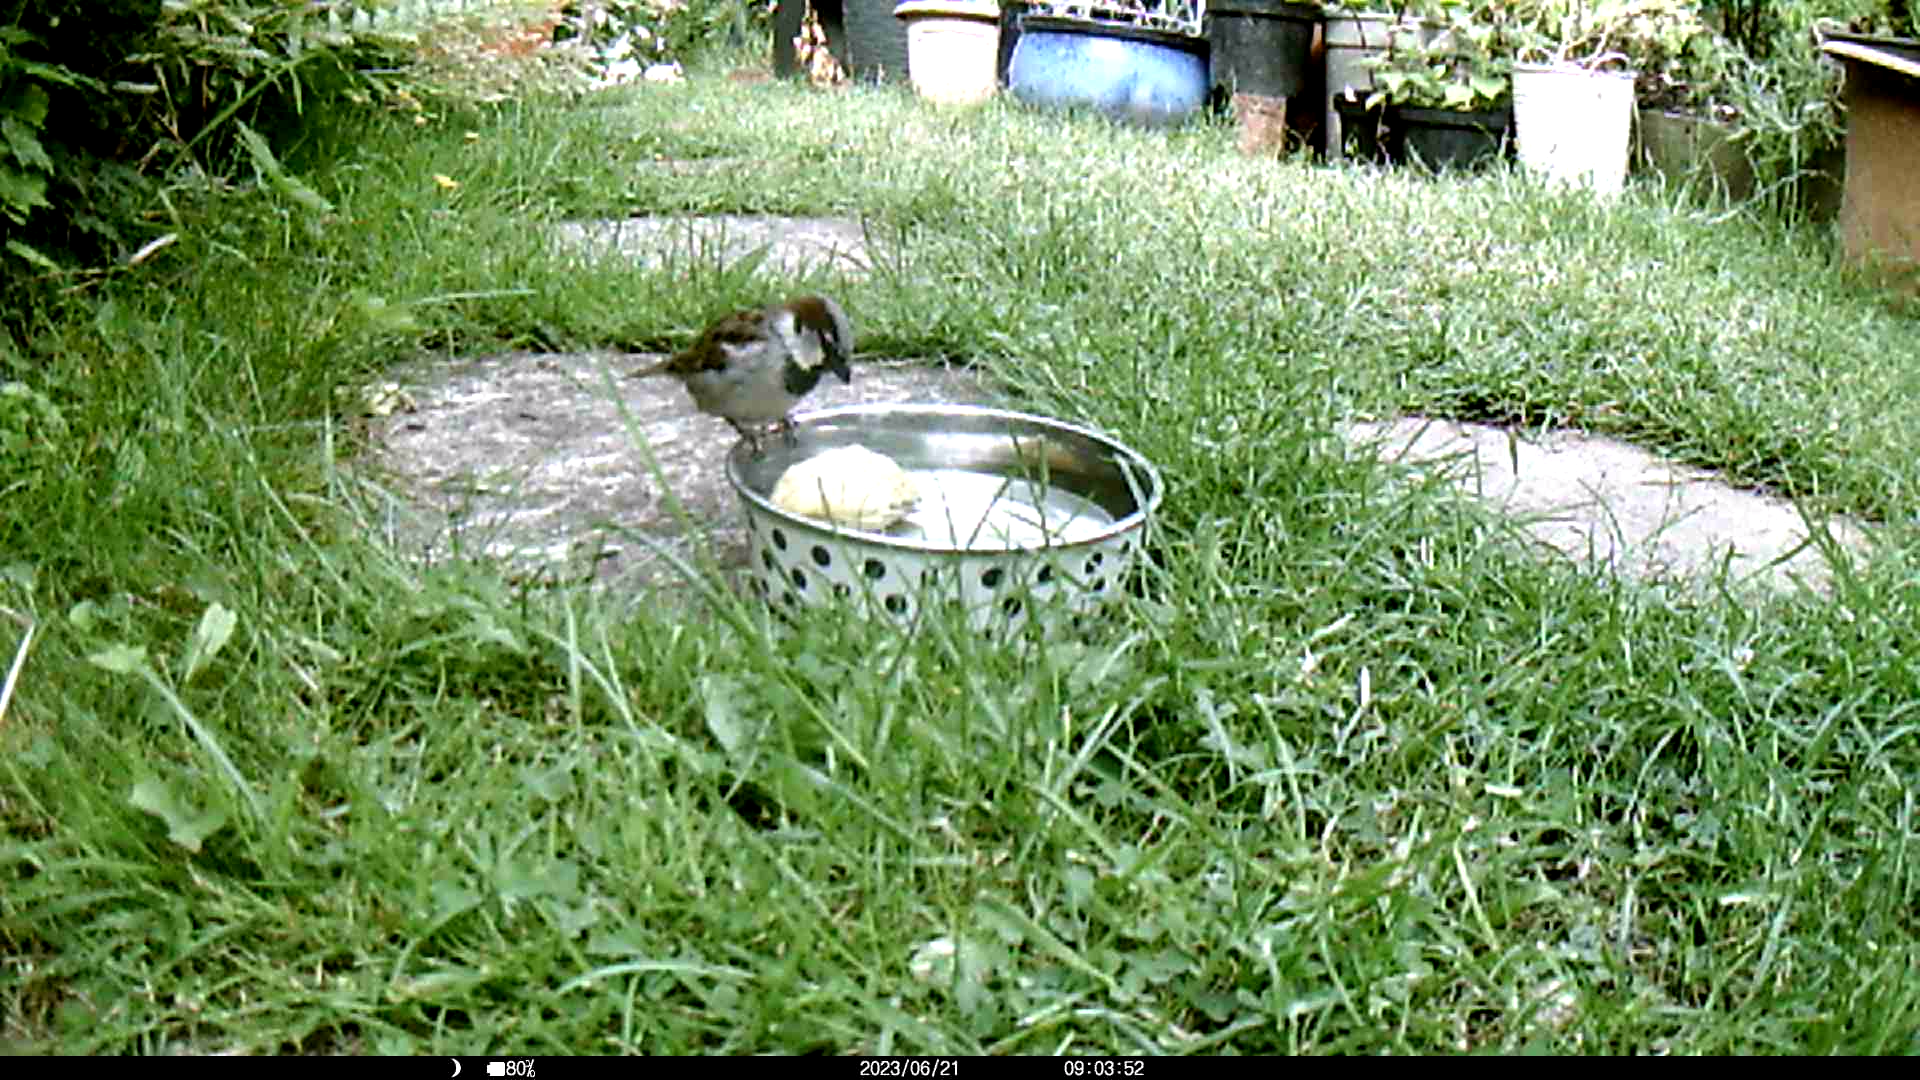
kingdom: Animalia
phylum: Chordata
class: Aves
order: Passeriformes
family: Passeridae
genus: Passer
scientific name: Passer domesticus
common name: House sparrow
